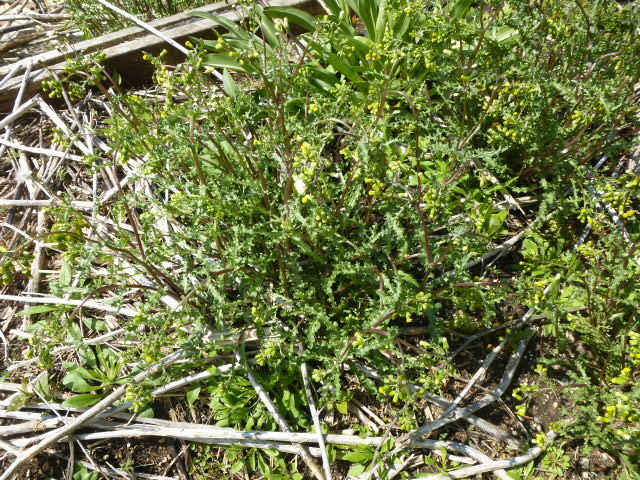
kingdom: Plantae
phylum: Tracheophyta
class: Magnoliopsida
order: Asterales
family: Asteraceae
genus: Senecio
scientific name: Senecio vulgaris
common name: Old-man-in-the-spring
